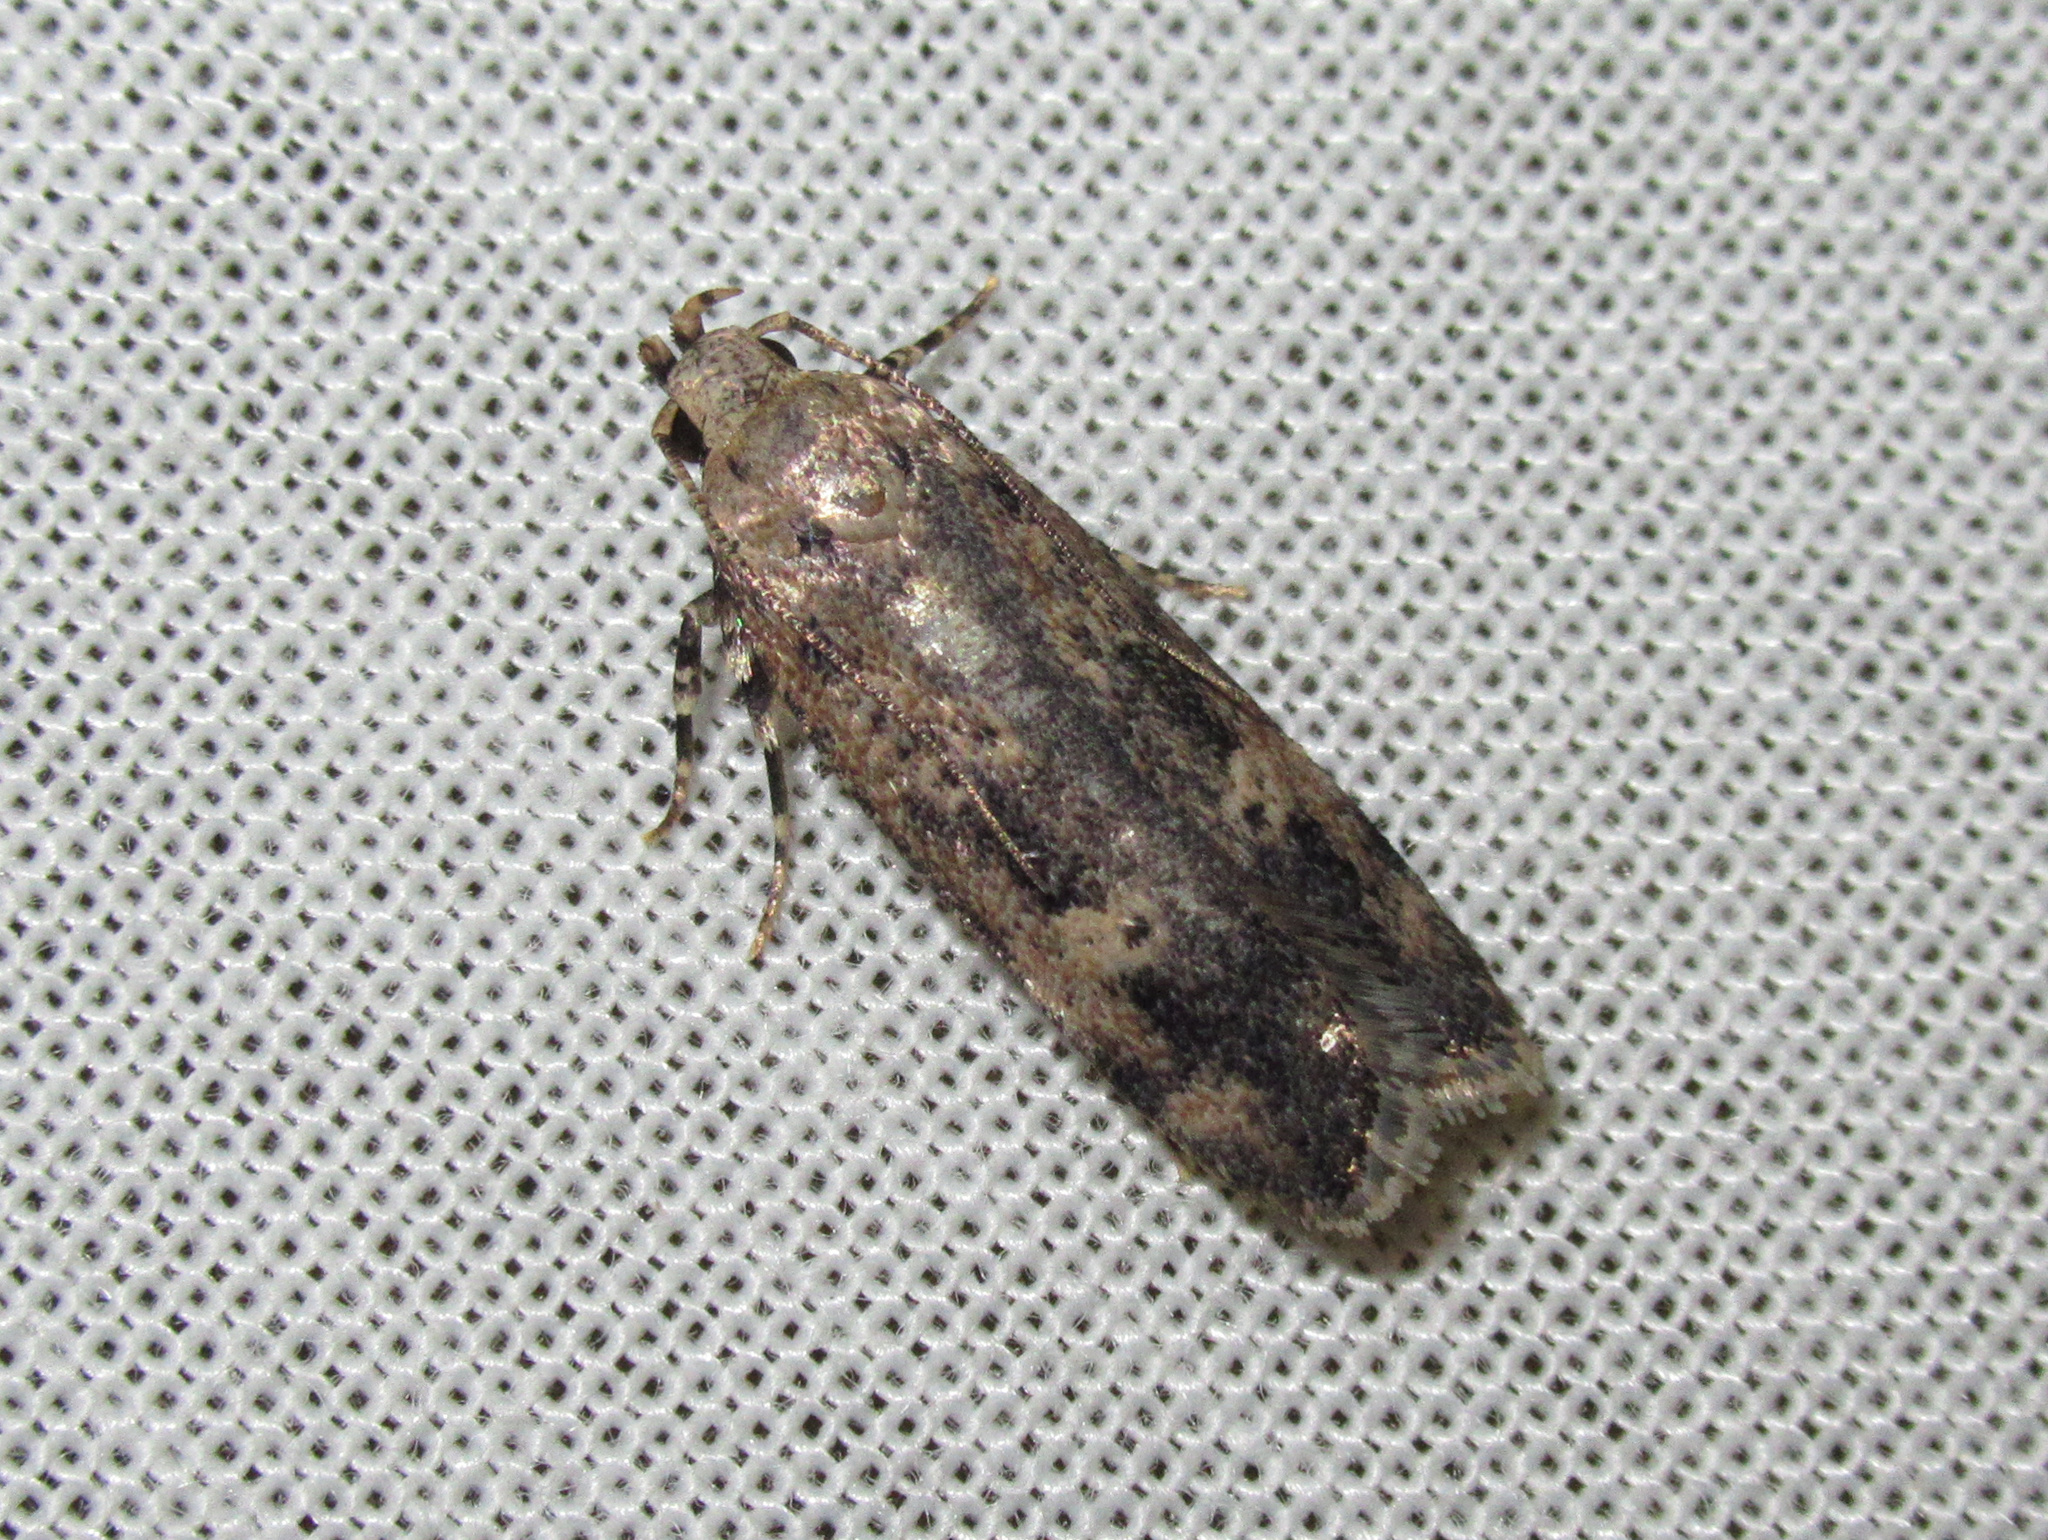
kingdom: Animalia
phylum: Arthropoda
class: Insecta
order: Lepidoptera
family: Gelechiidae
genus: Anisoplaca
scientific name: Anisoplaca cosmia
